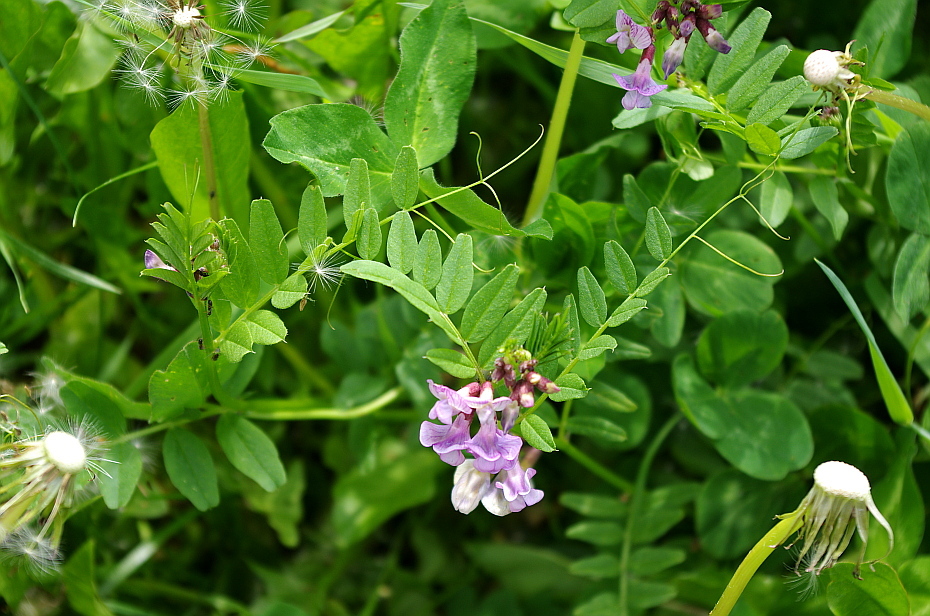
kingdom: Plantae
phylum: Tracheophyta
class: Magnoliopsida
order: Fabales
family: Fabaceae
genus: Vicia
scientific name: Vicia sepium
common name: Bush vetch
